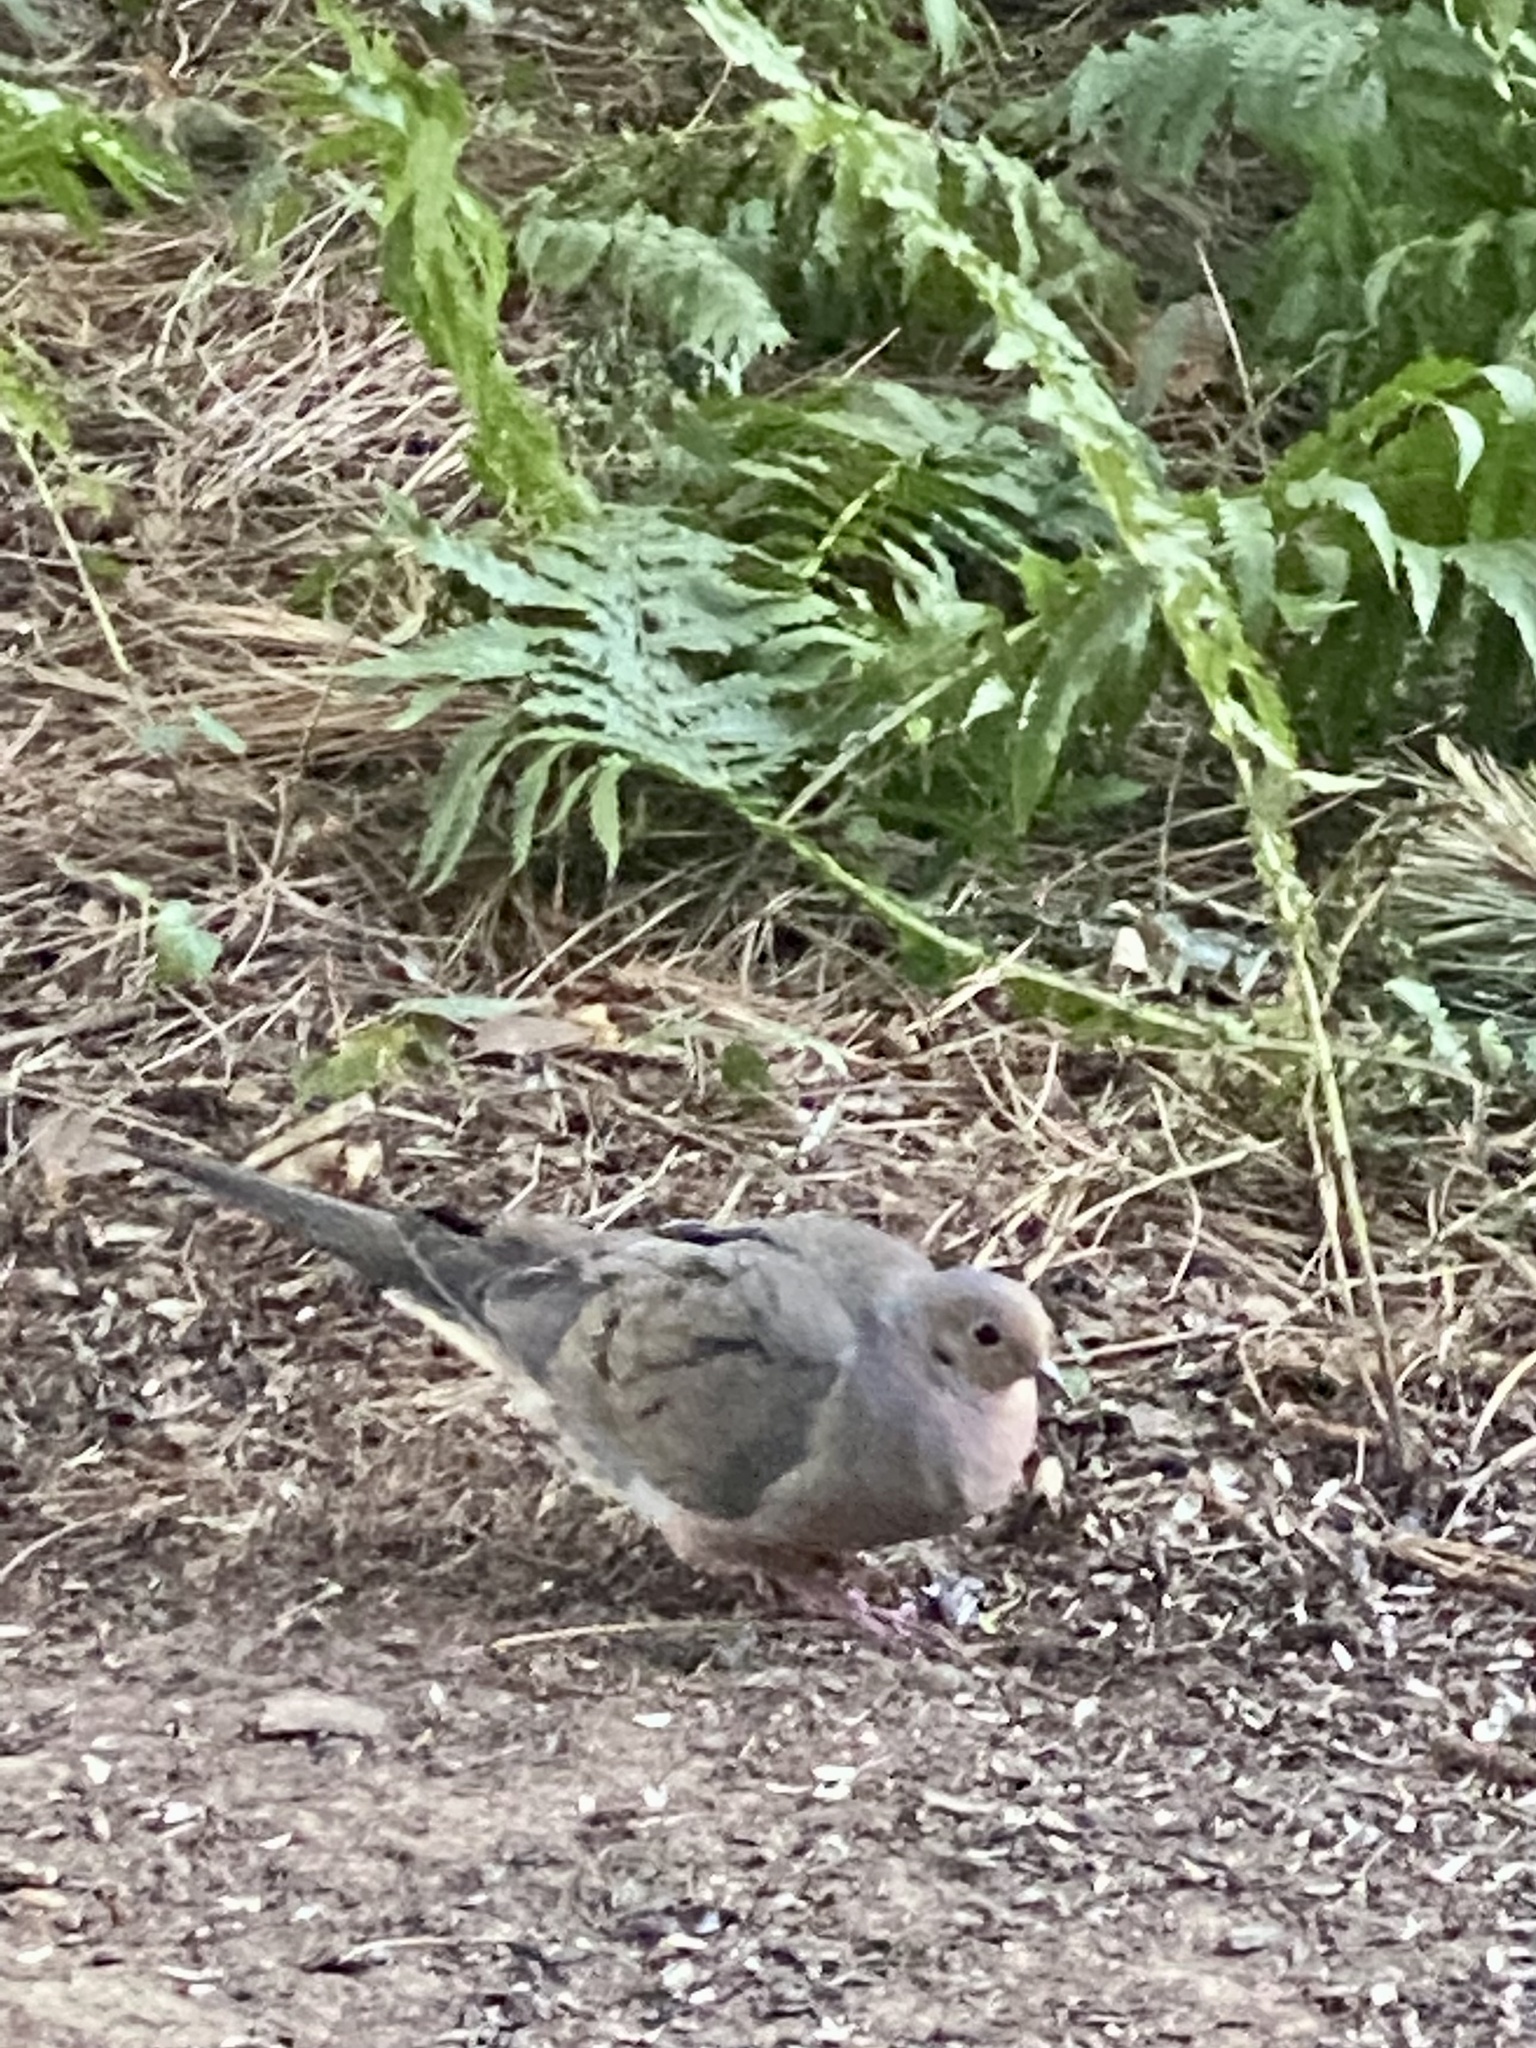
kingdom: Animalia
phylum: Chordata
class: Aves
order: Columbiformes
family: Columbidae
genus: Zenaida
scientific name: Zenaida macroura
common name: Mourning dove
